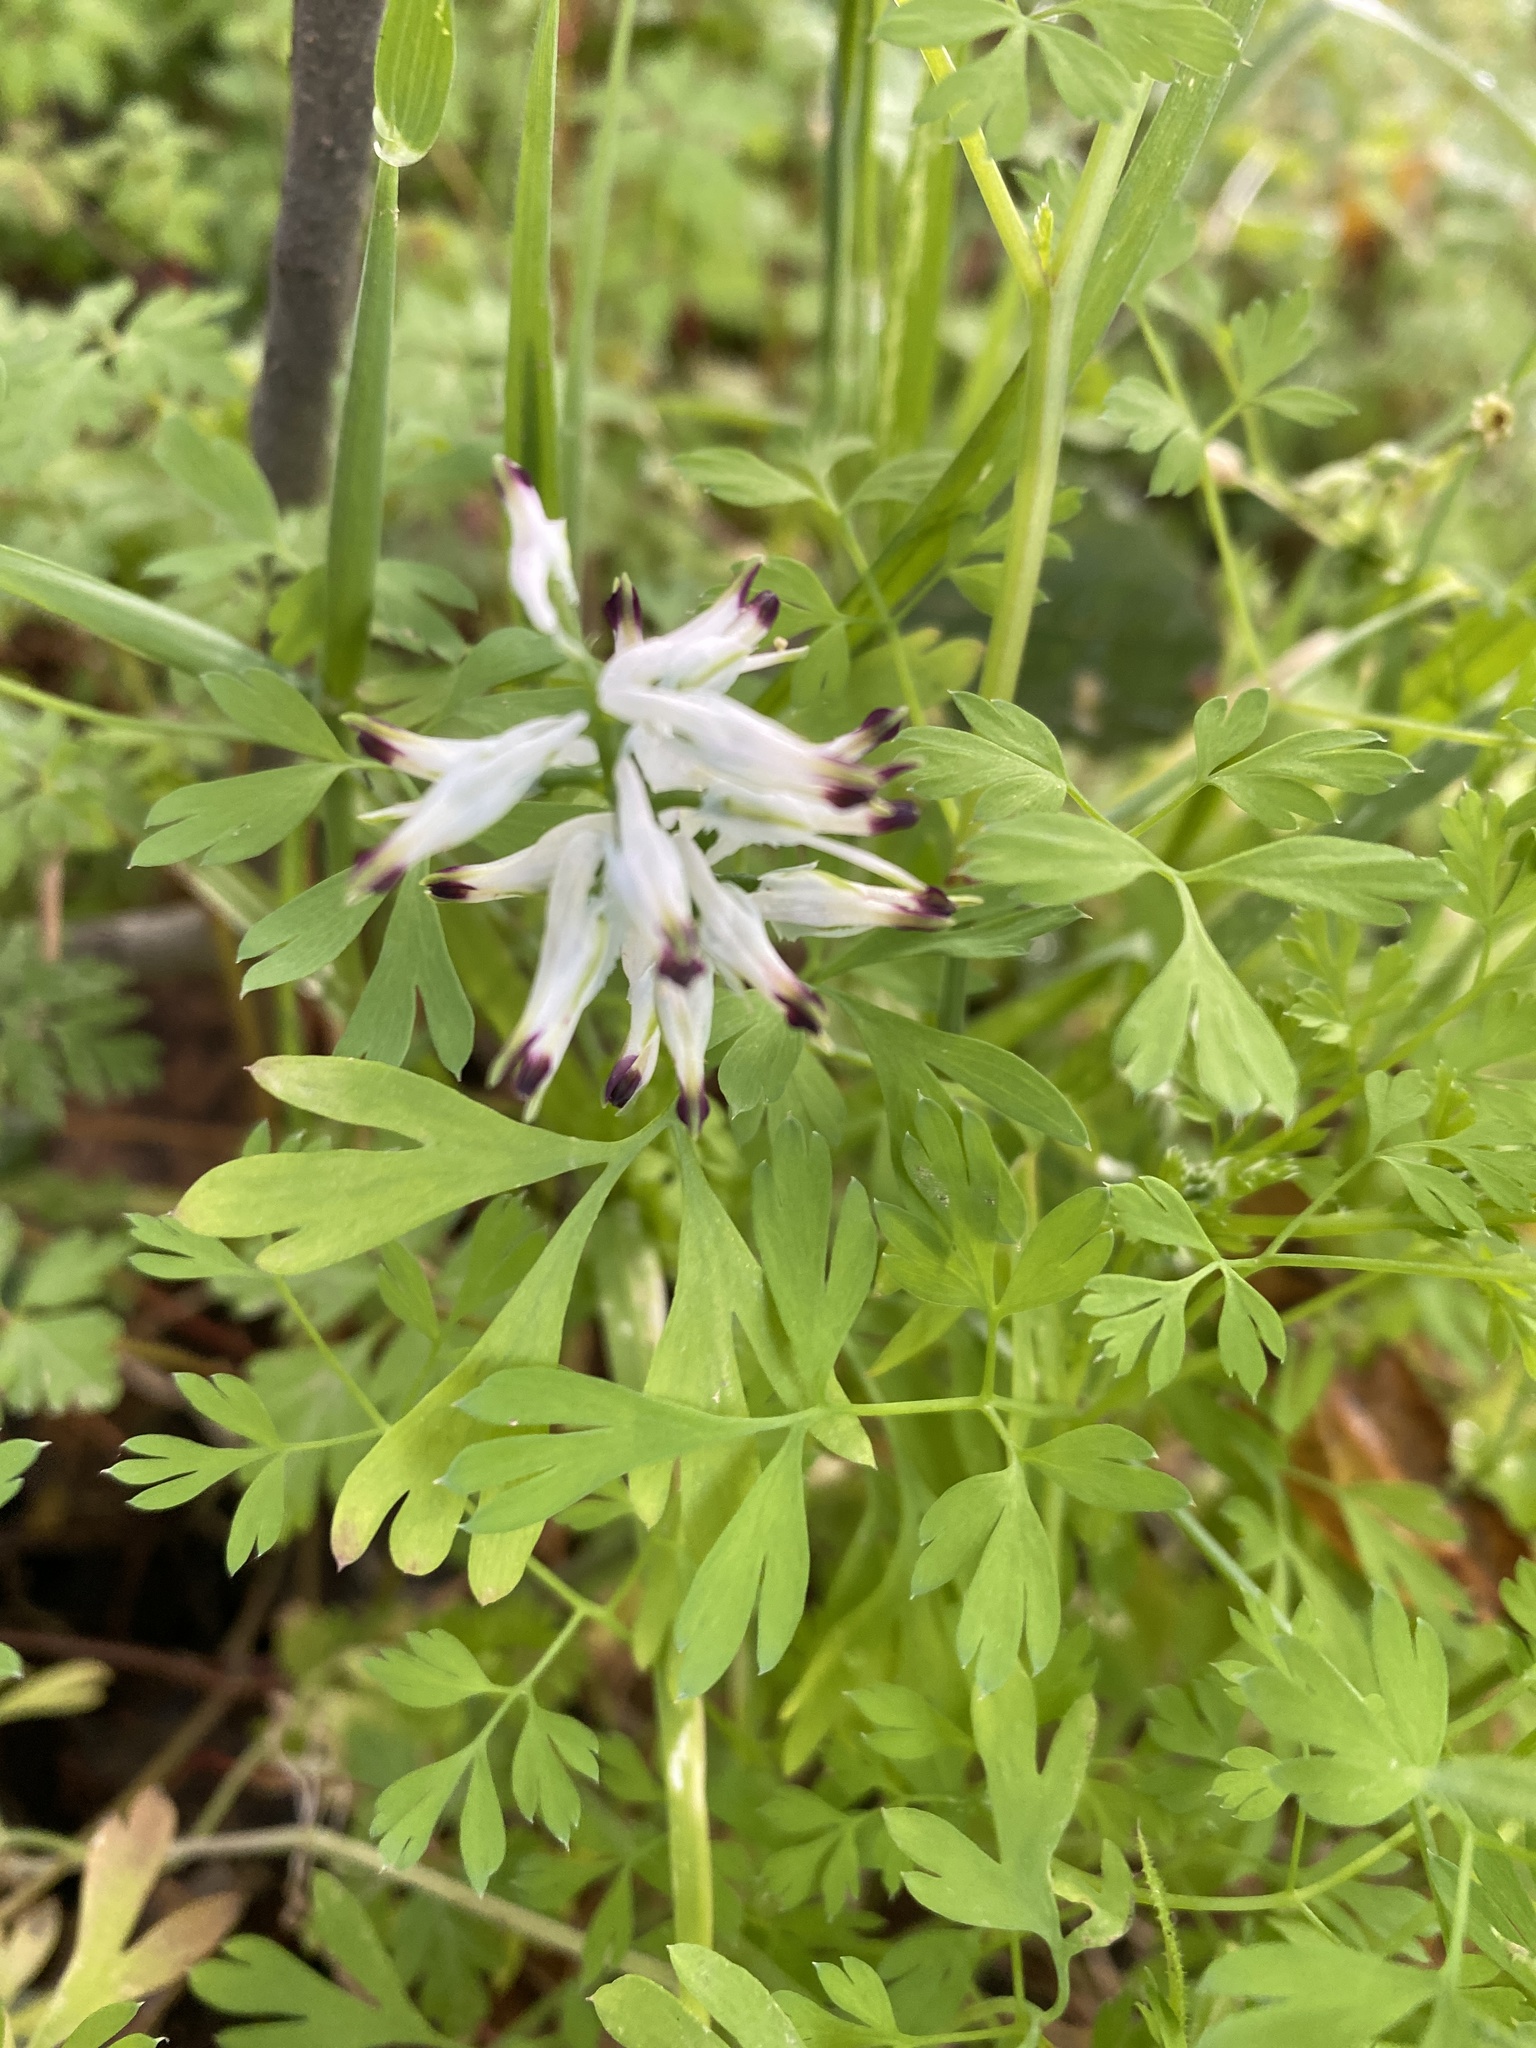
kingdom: Plantae
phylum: Tracheophyta
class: Magnoliopsida
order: Ranunculales
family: Papaveraceae
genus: Fumaria
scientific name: Fumaria capreolata
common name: White ramping-fumitory
